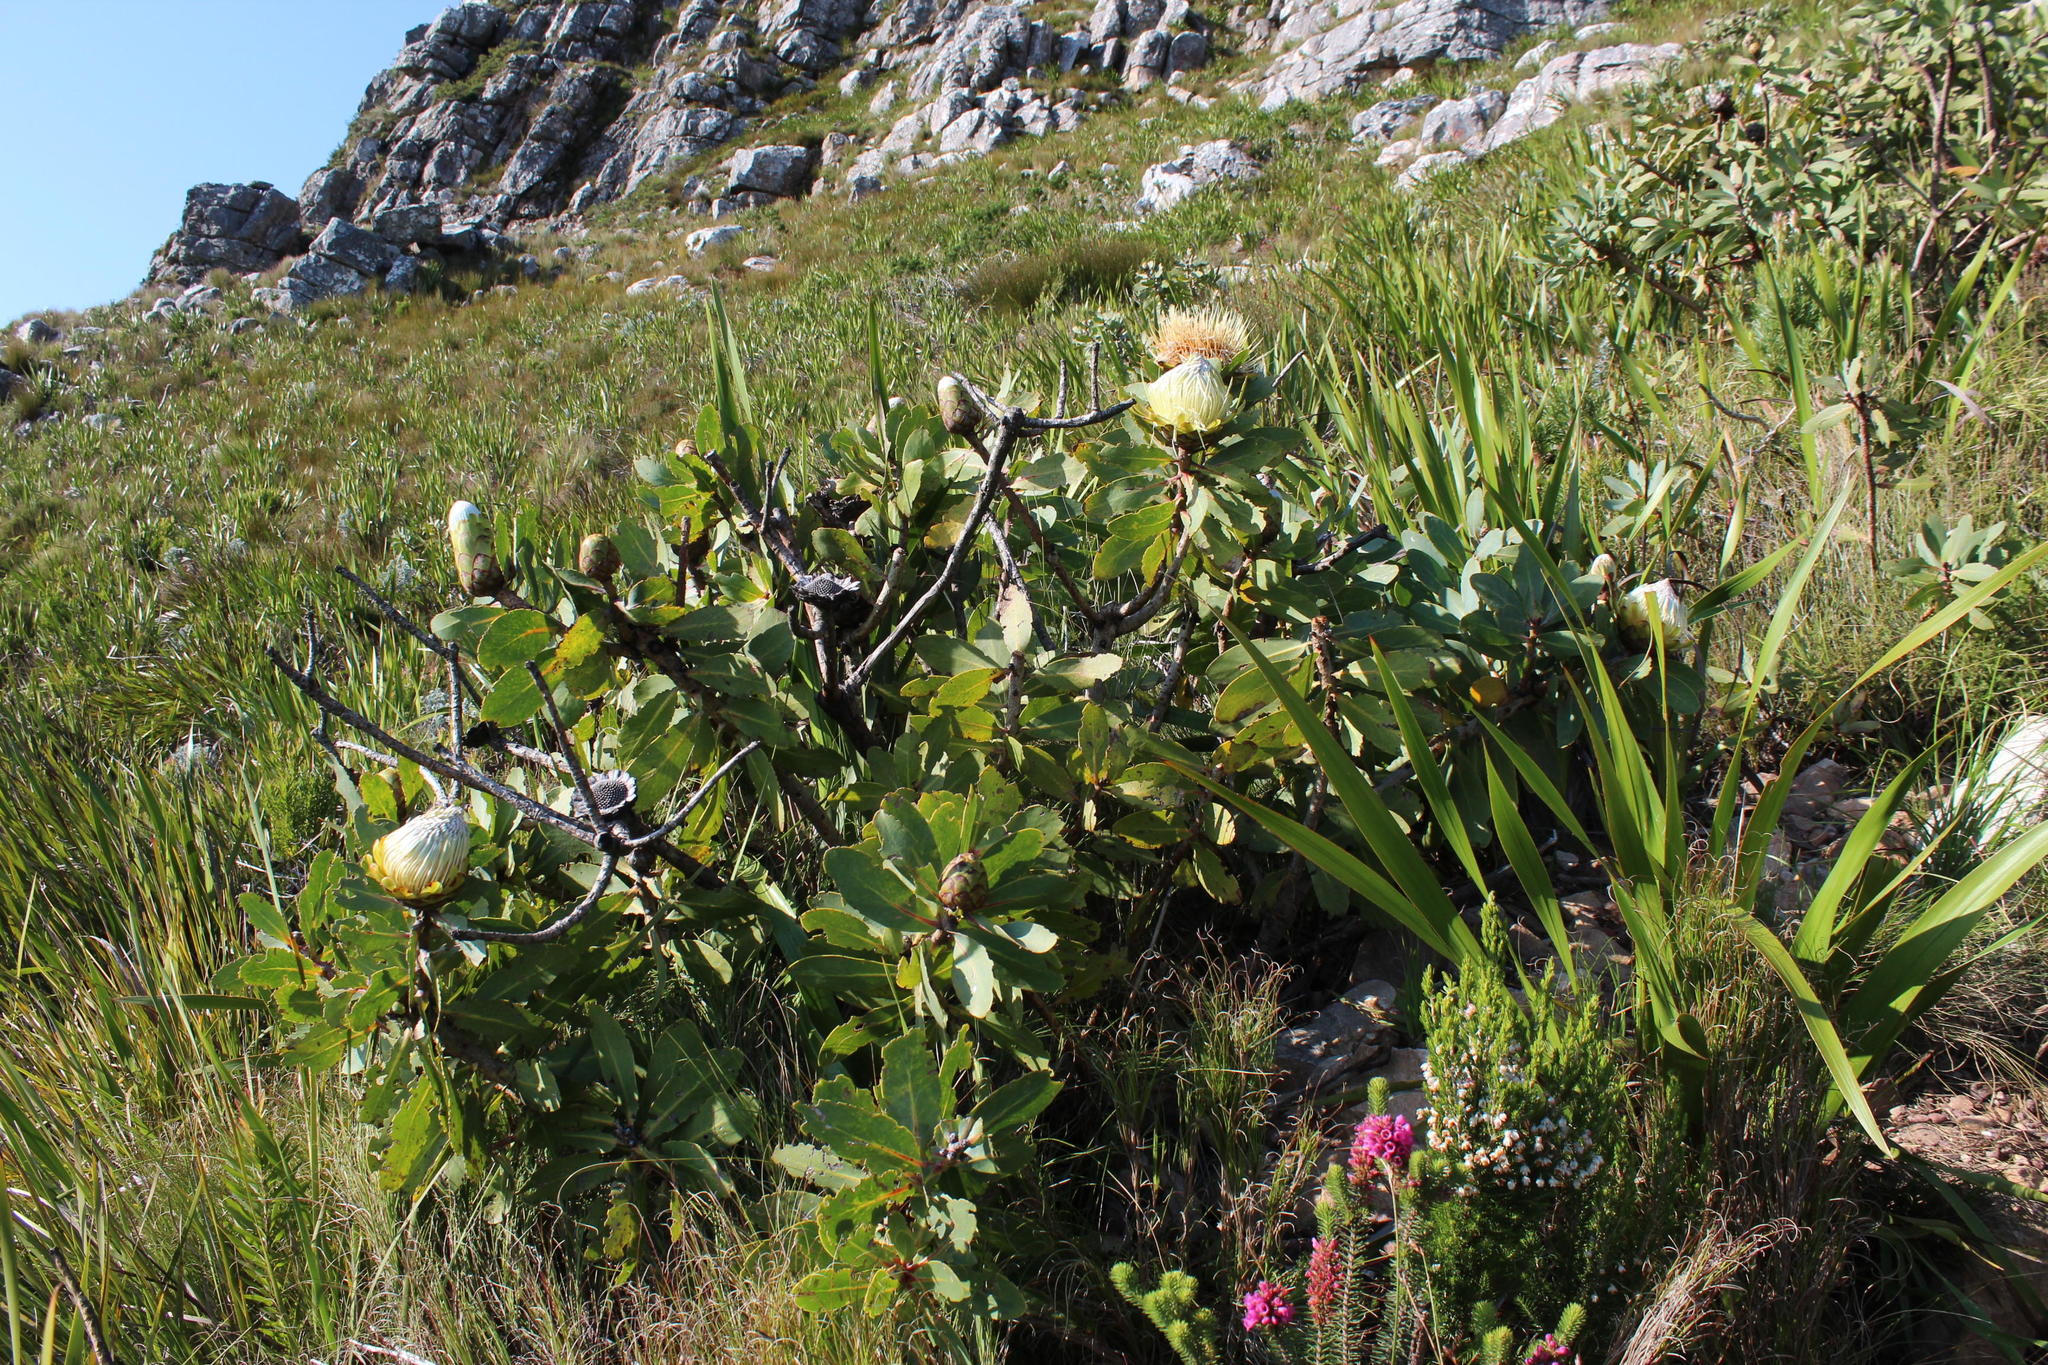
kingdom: Plantae
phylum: Tracheophyta
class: Magnoliopsida
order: Proteales
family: Proteaceae
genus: Protea
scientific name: Protea nitida
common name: Tree protea
